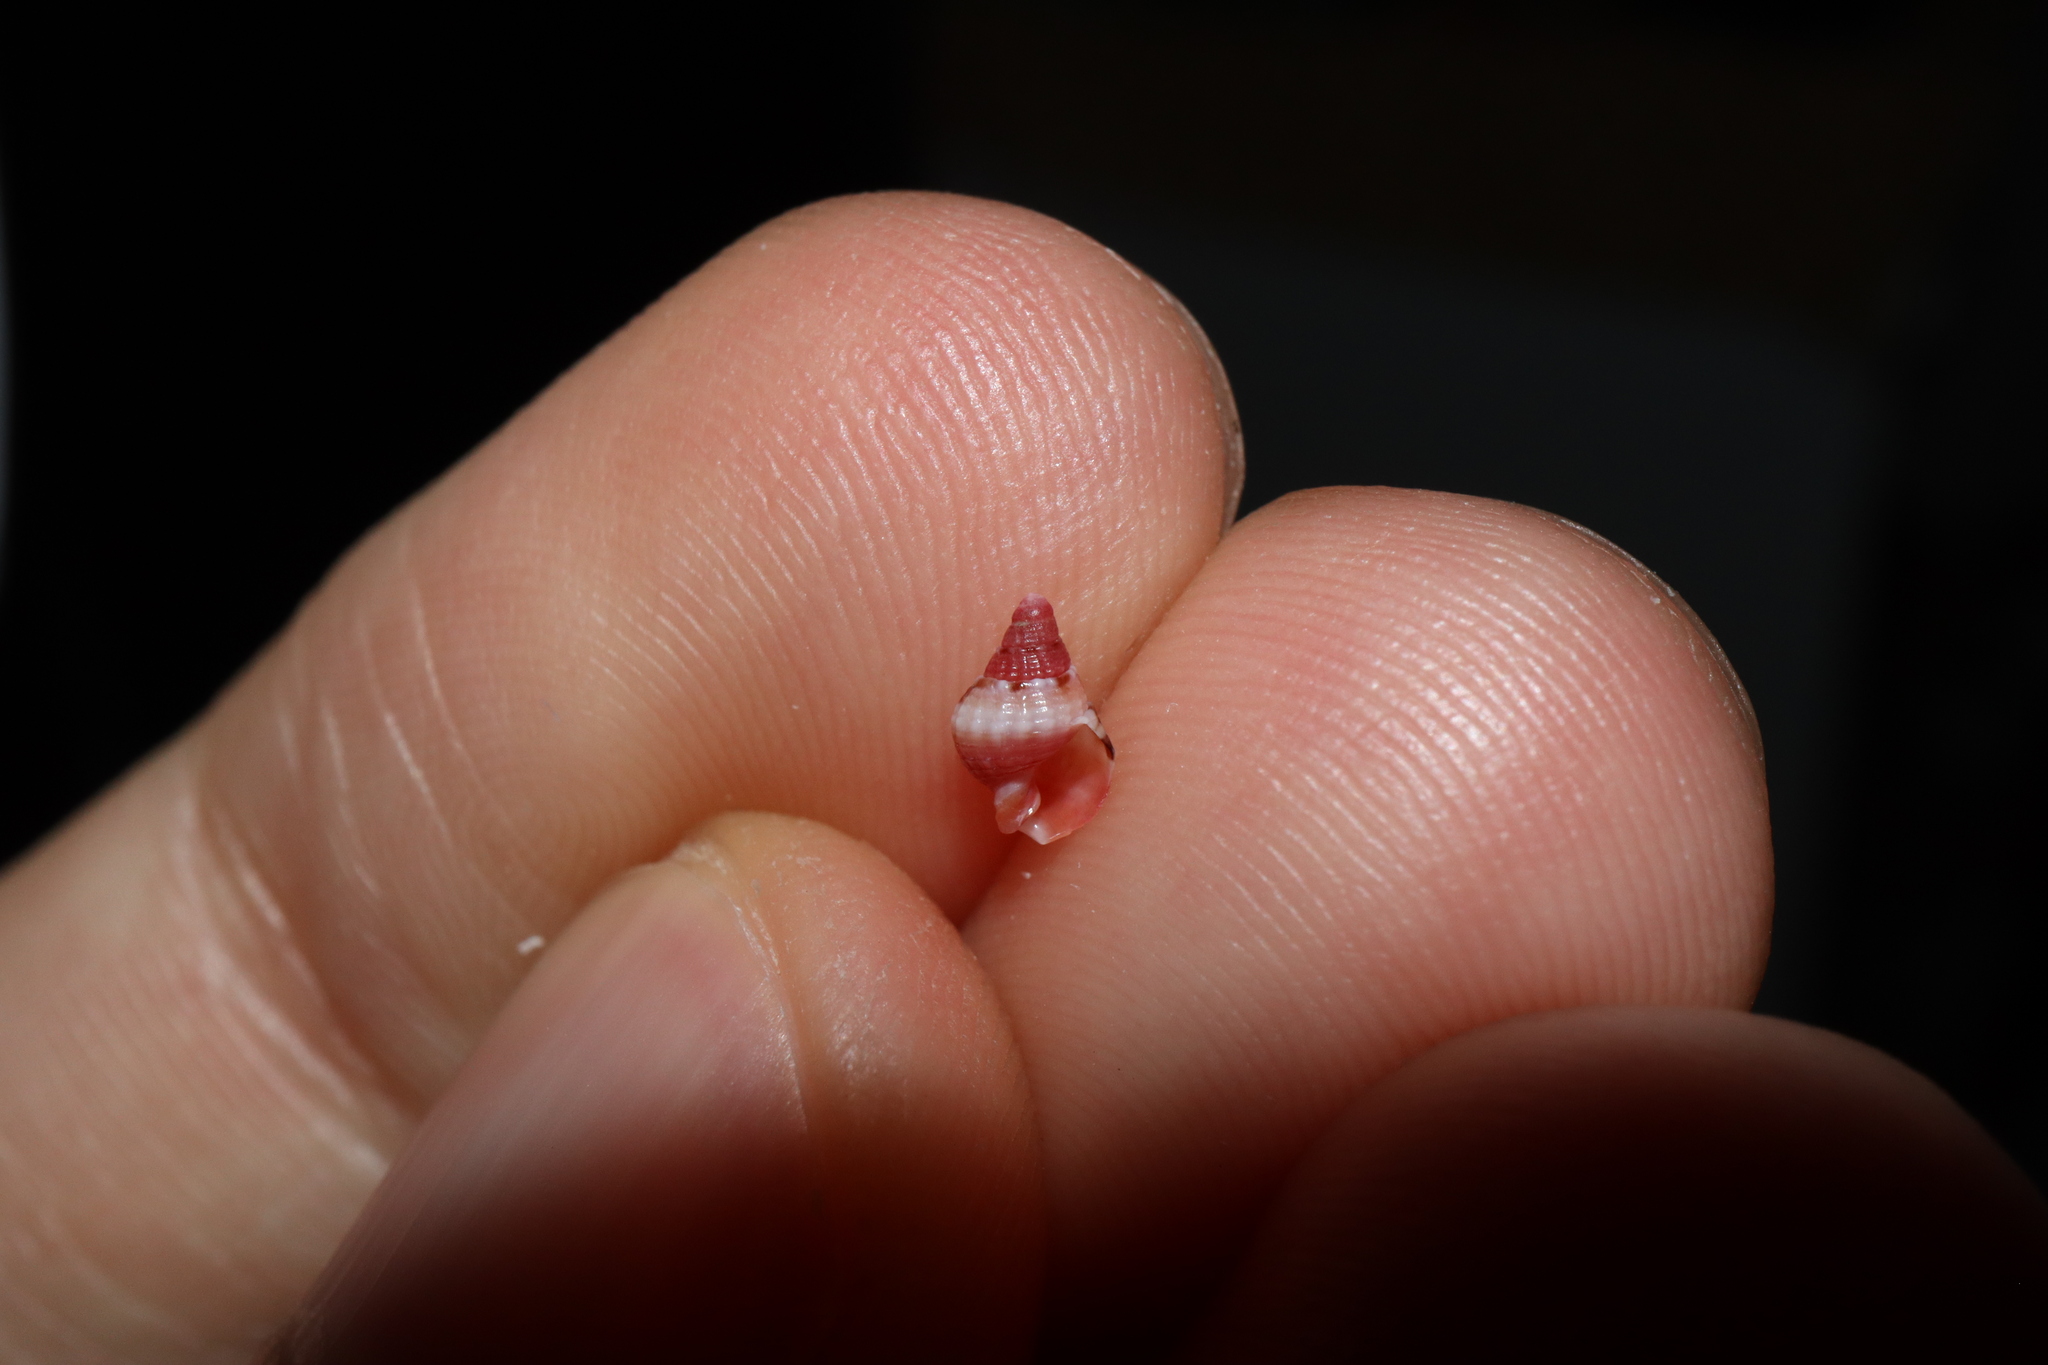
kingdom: Animalia
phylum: Mollusca
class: Gastropoda
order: Neogastropoda
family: Nassariidae
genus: Nassarius
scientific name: Nassarius gaudiosus
